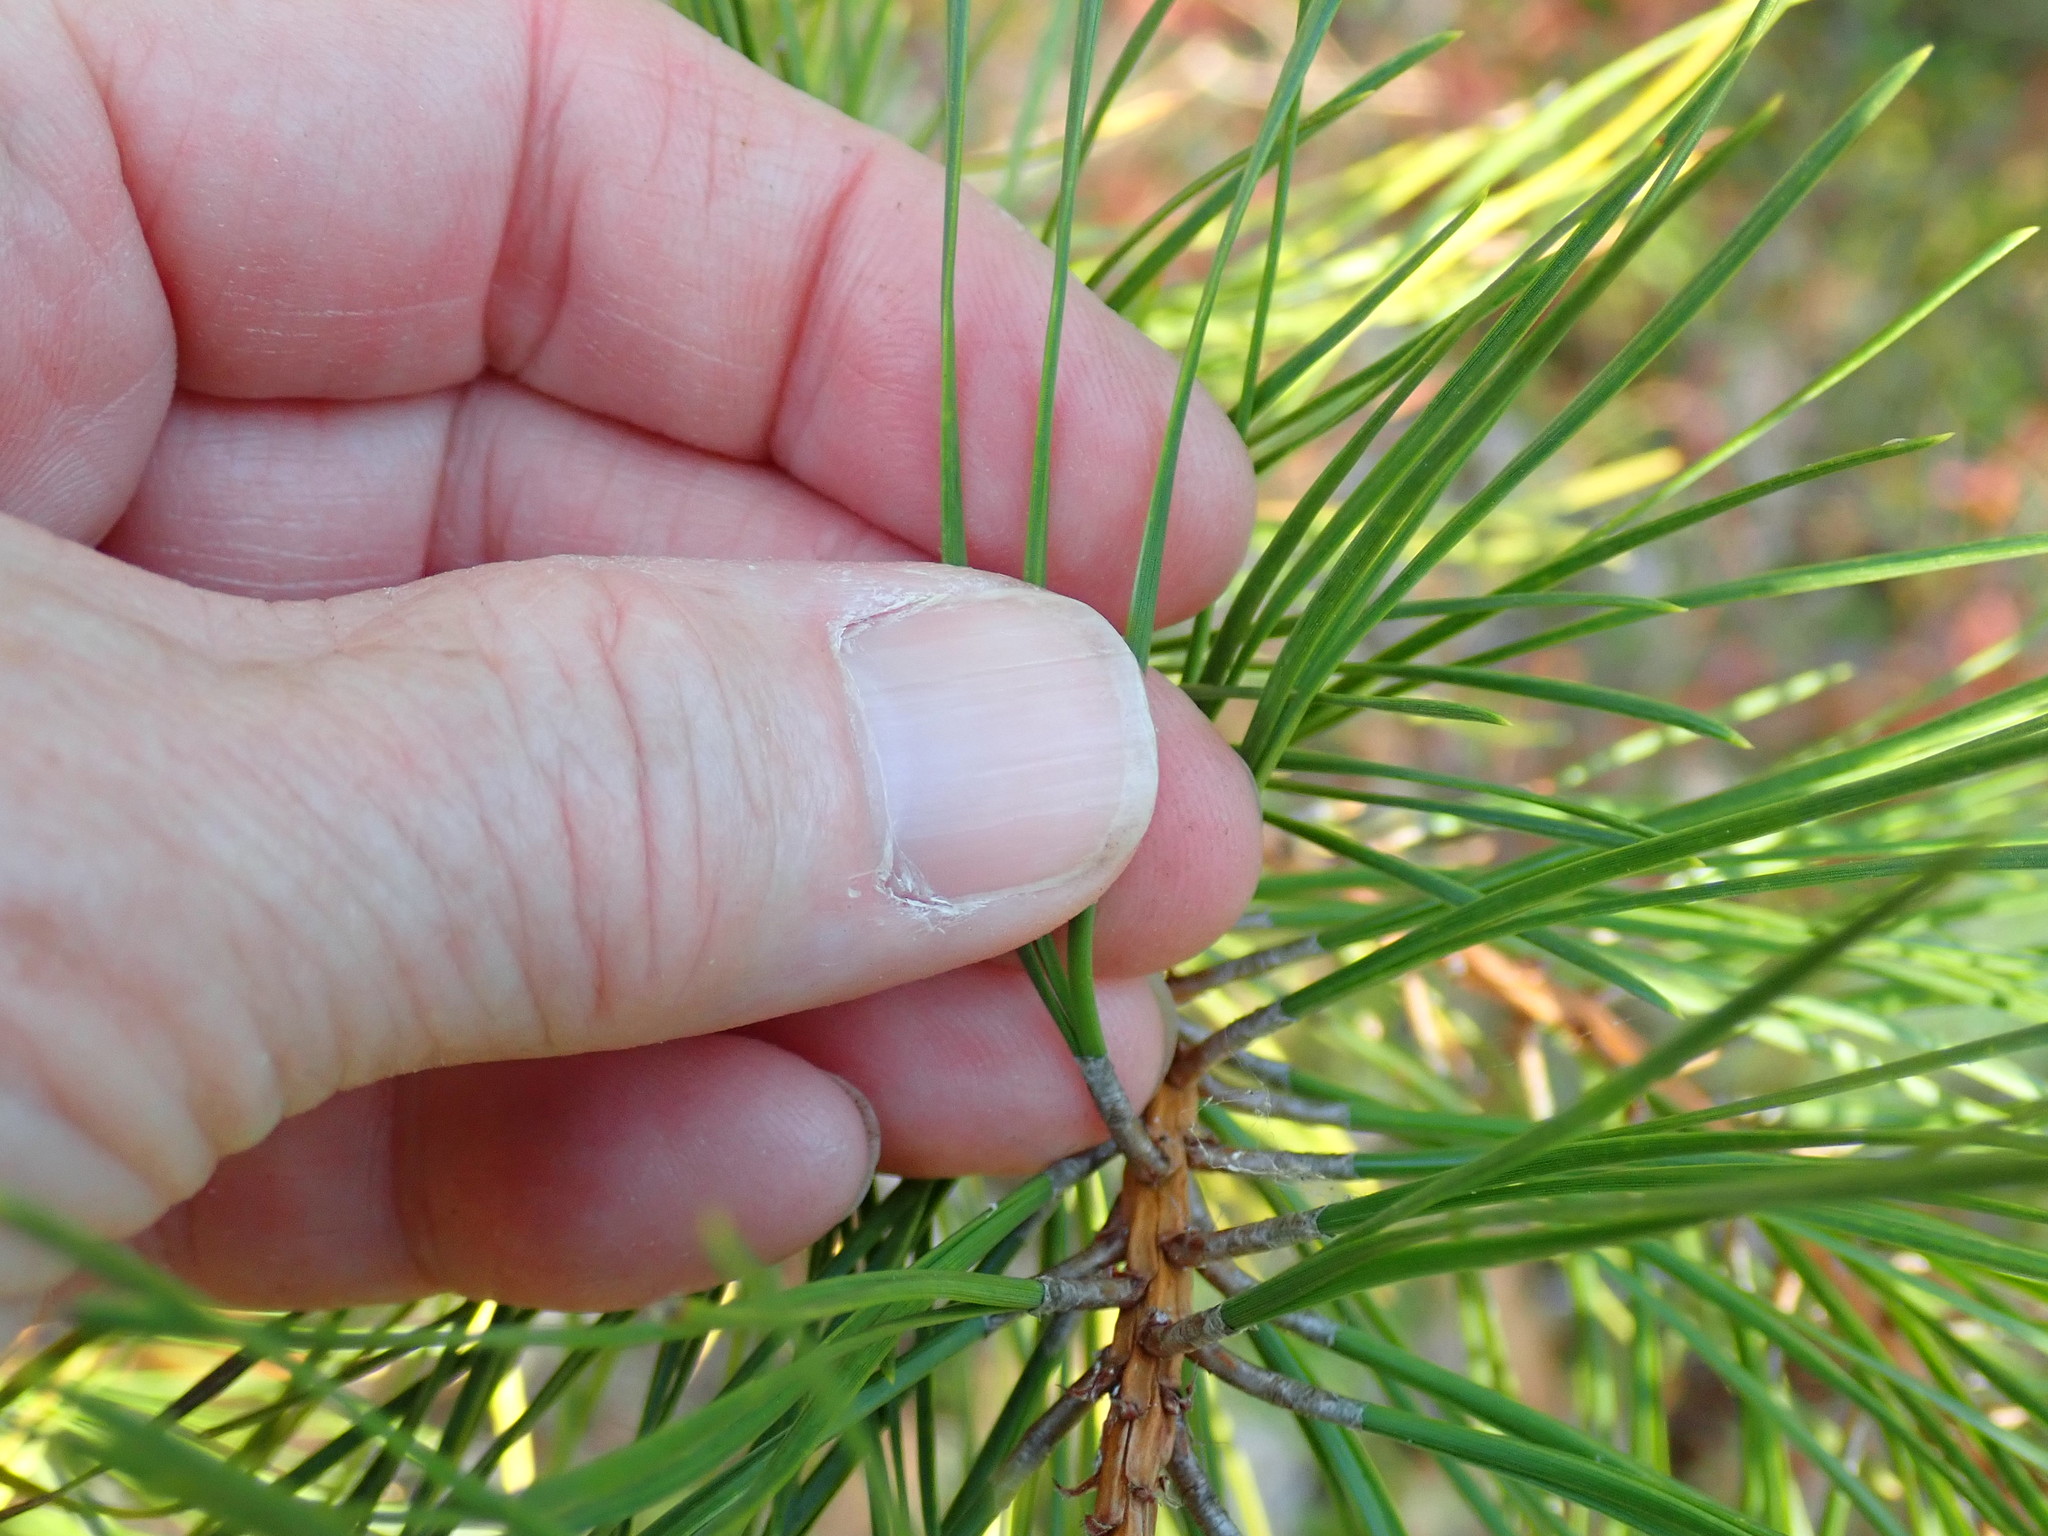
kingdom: Plantae
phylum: Tracheophyta
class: Pinopsida
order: Pinales
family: Pinaceae
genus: Pinus
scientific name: Pinus rigida
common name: Pitch pine
